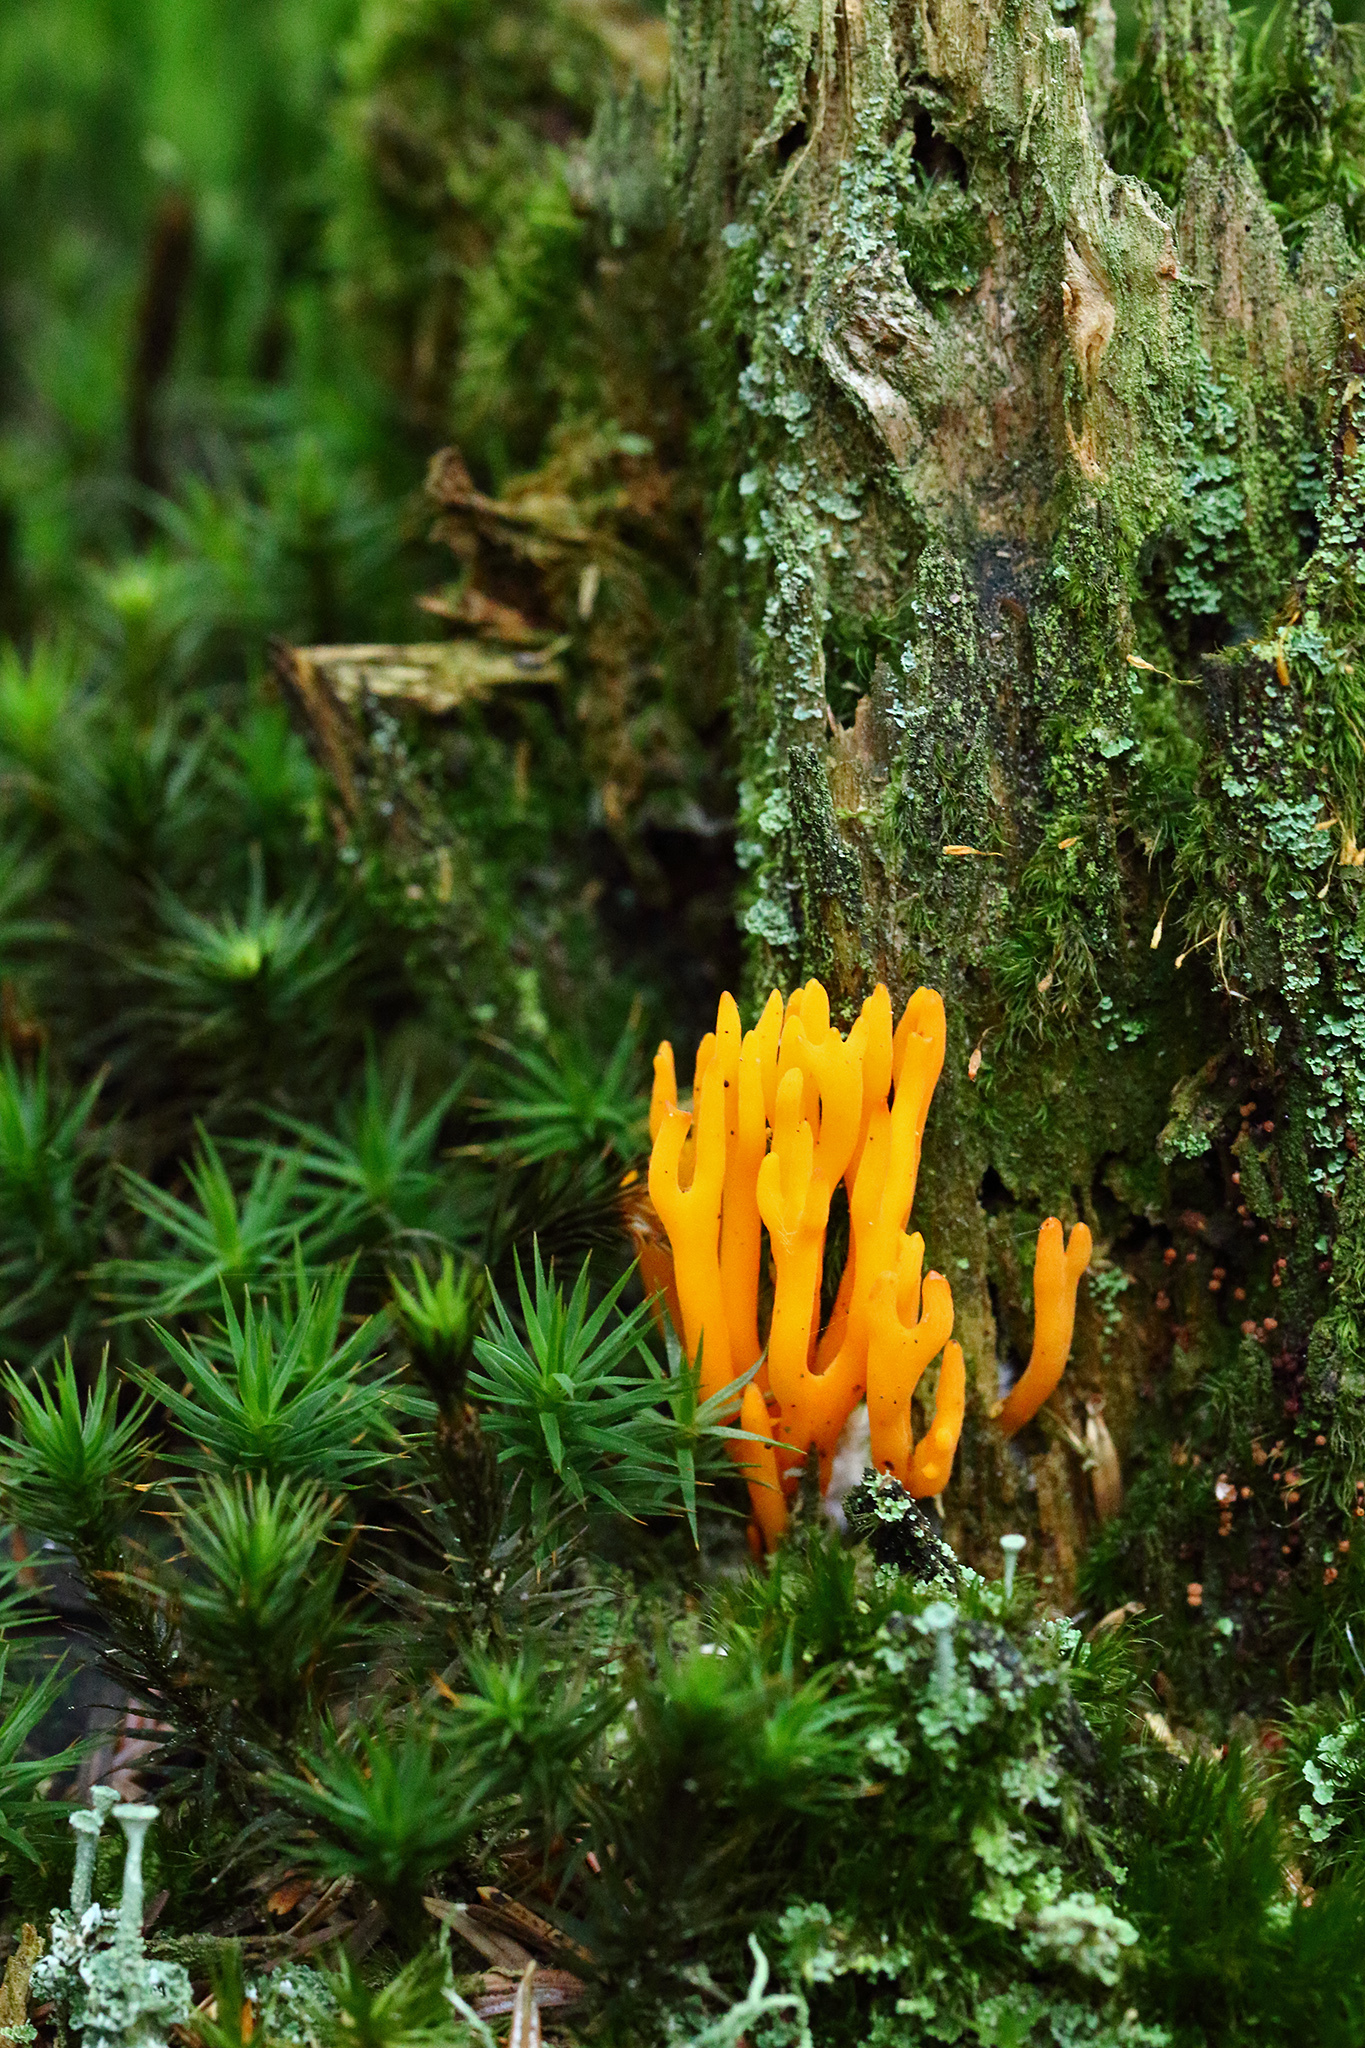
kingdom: Fungi
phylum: Basidiomycota
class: Dacrymycetes
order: Dacrymycetales
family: Dacrymycetaceae
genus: Calocera
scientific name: Calocera viscosa
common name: Yellow stagshorn
